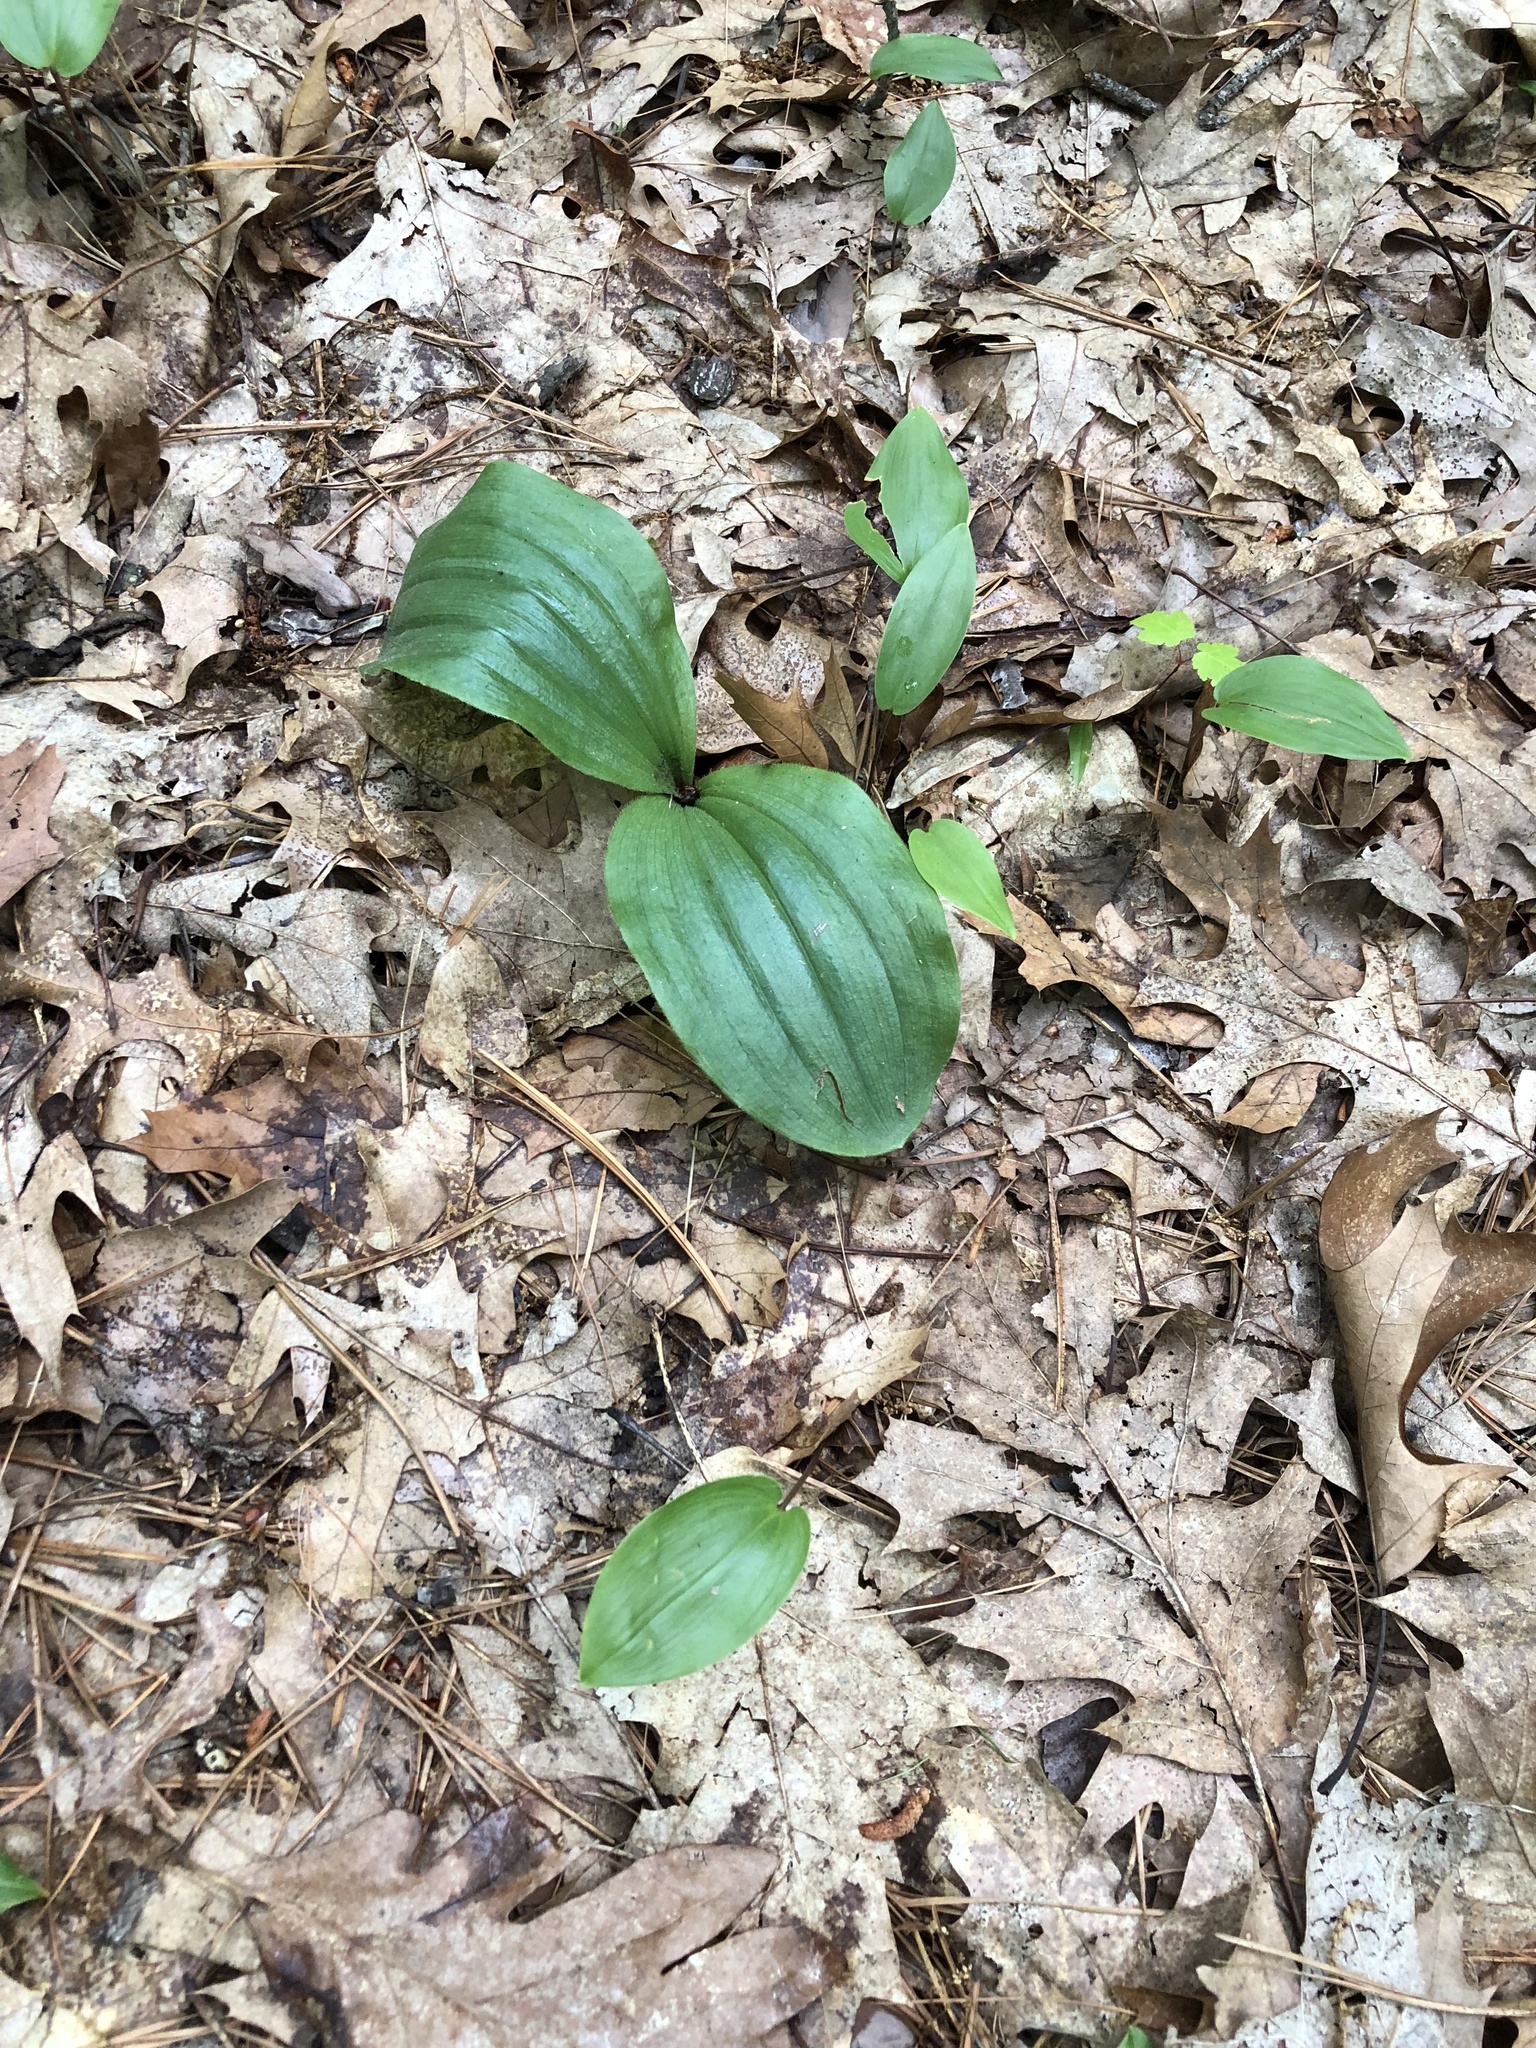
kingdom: Plantae
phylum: Tracheophyta
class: Liliopsida
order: Asparagales
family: Orchidaceae
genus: Cypripedium
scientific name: Cypripedium acaule
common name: Pink lady's-slipper
